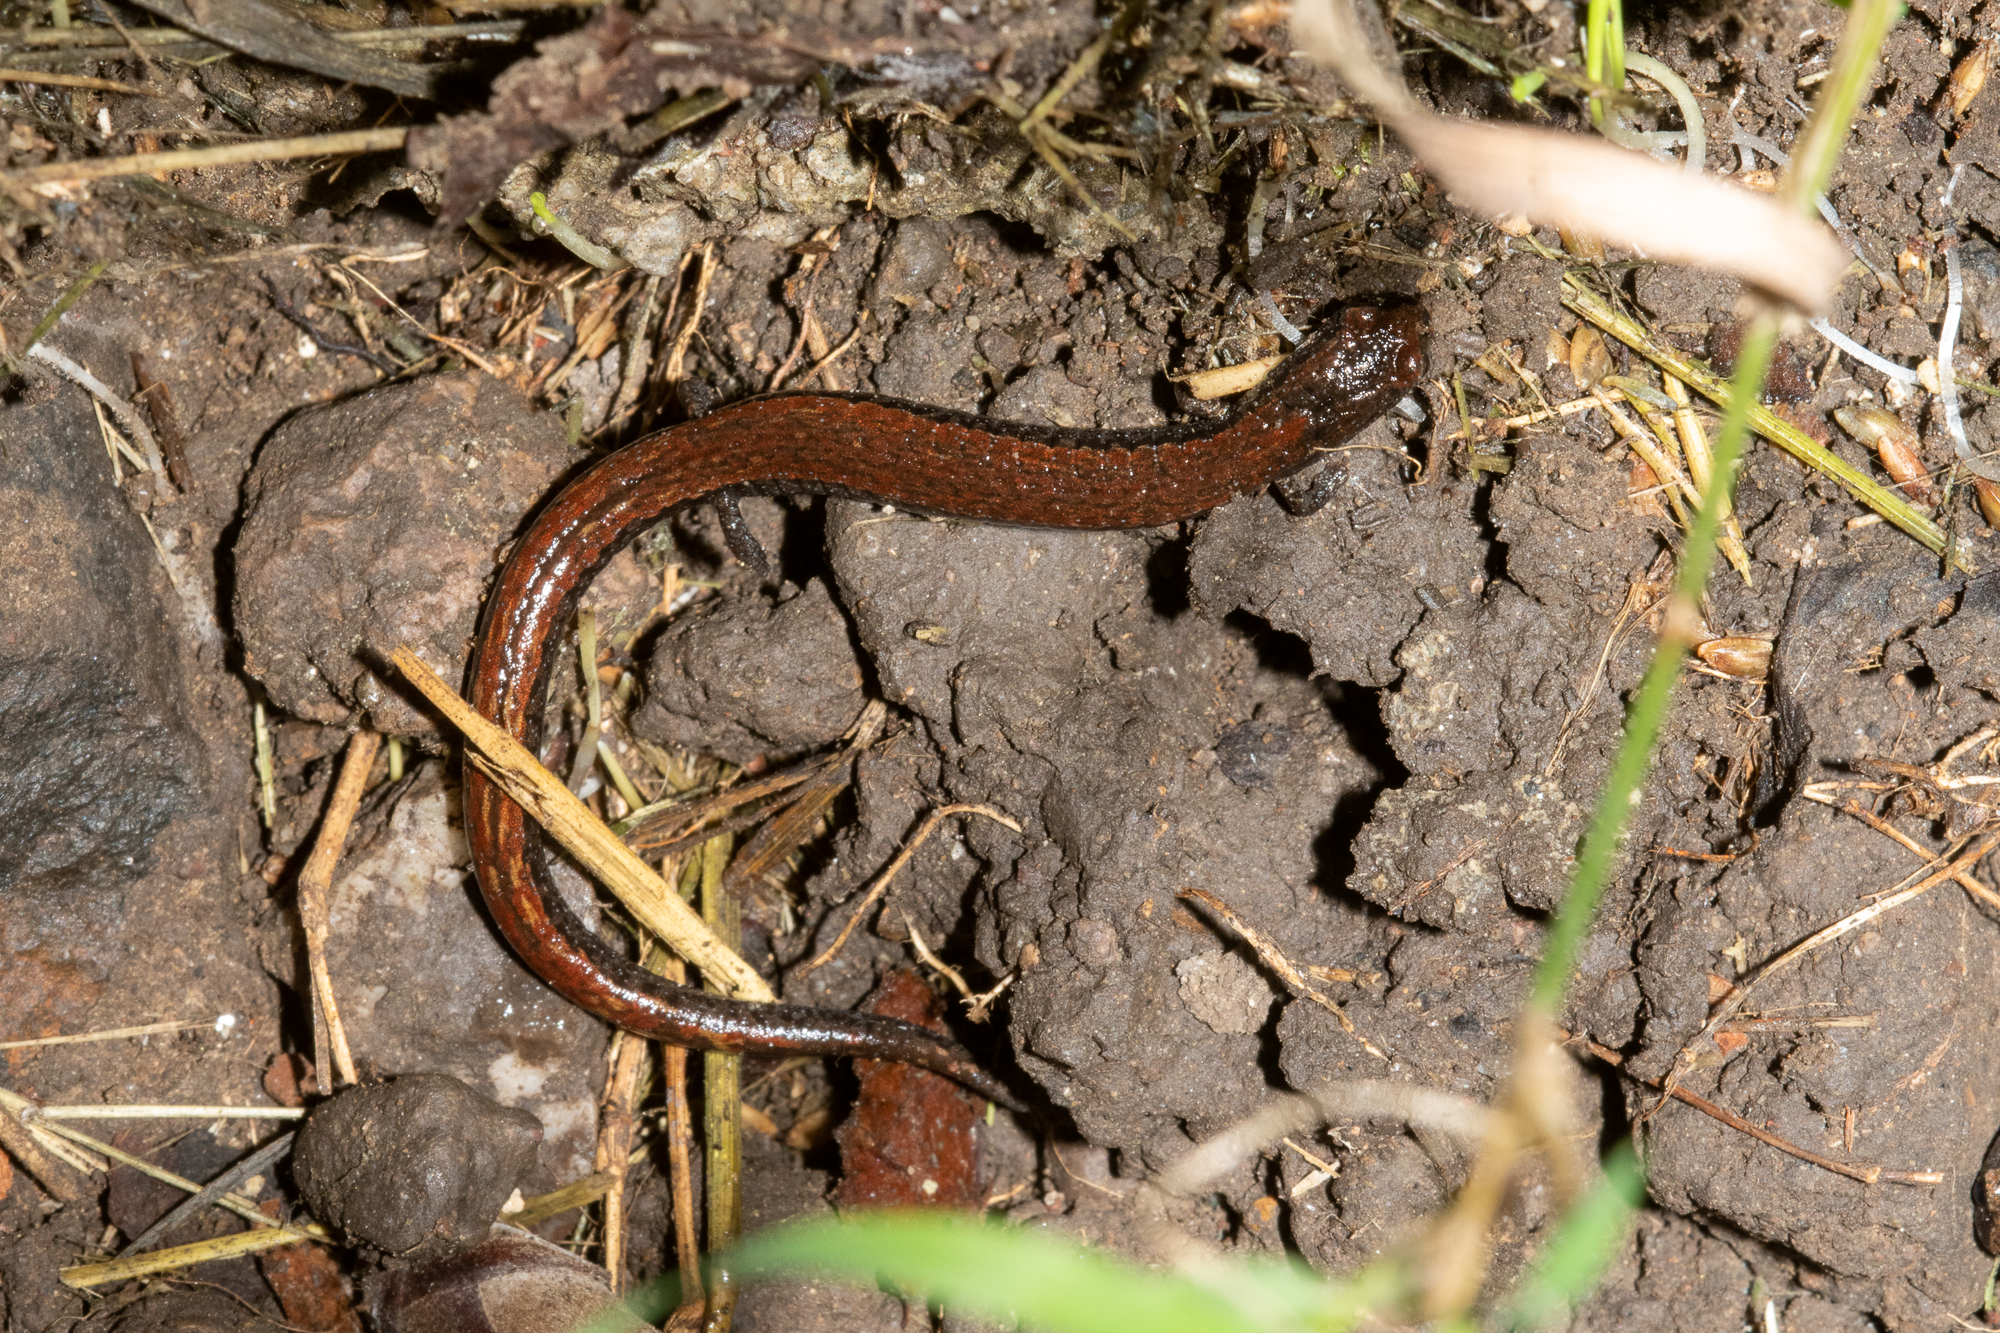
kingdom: Animalia
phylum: Chordata
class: Amphibia
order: Caudata
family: Plethodontidae
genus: Batrachoseps
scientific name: Batrachoseps attenuatus
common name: California slender salamander
